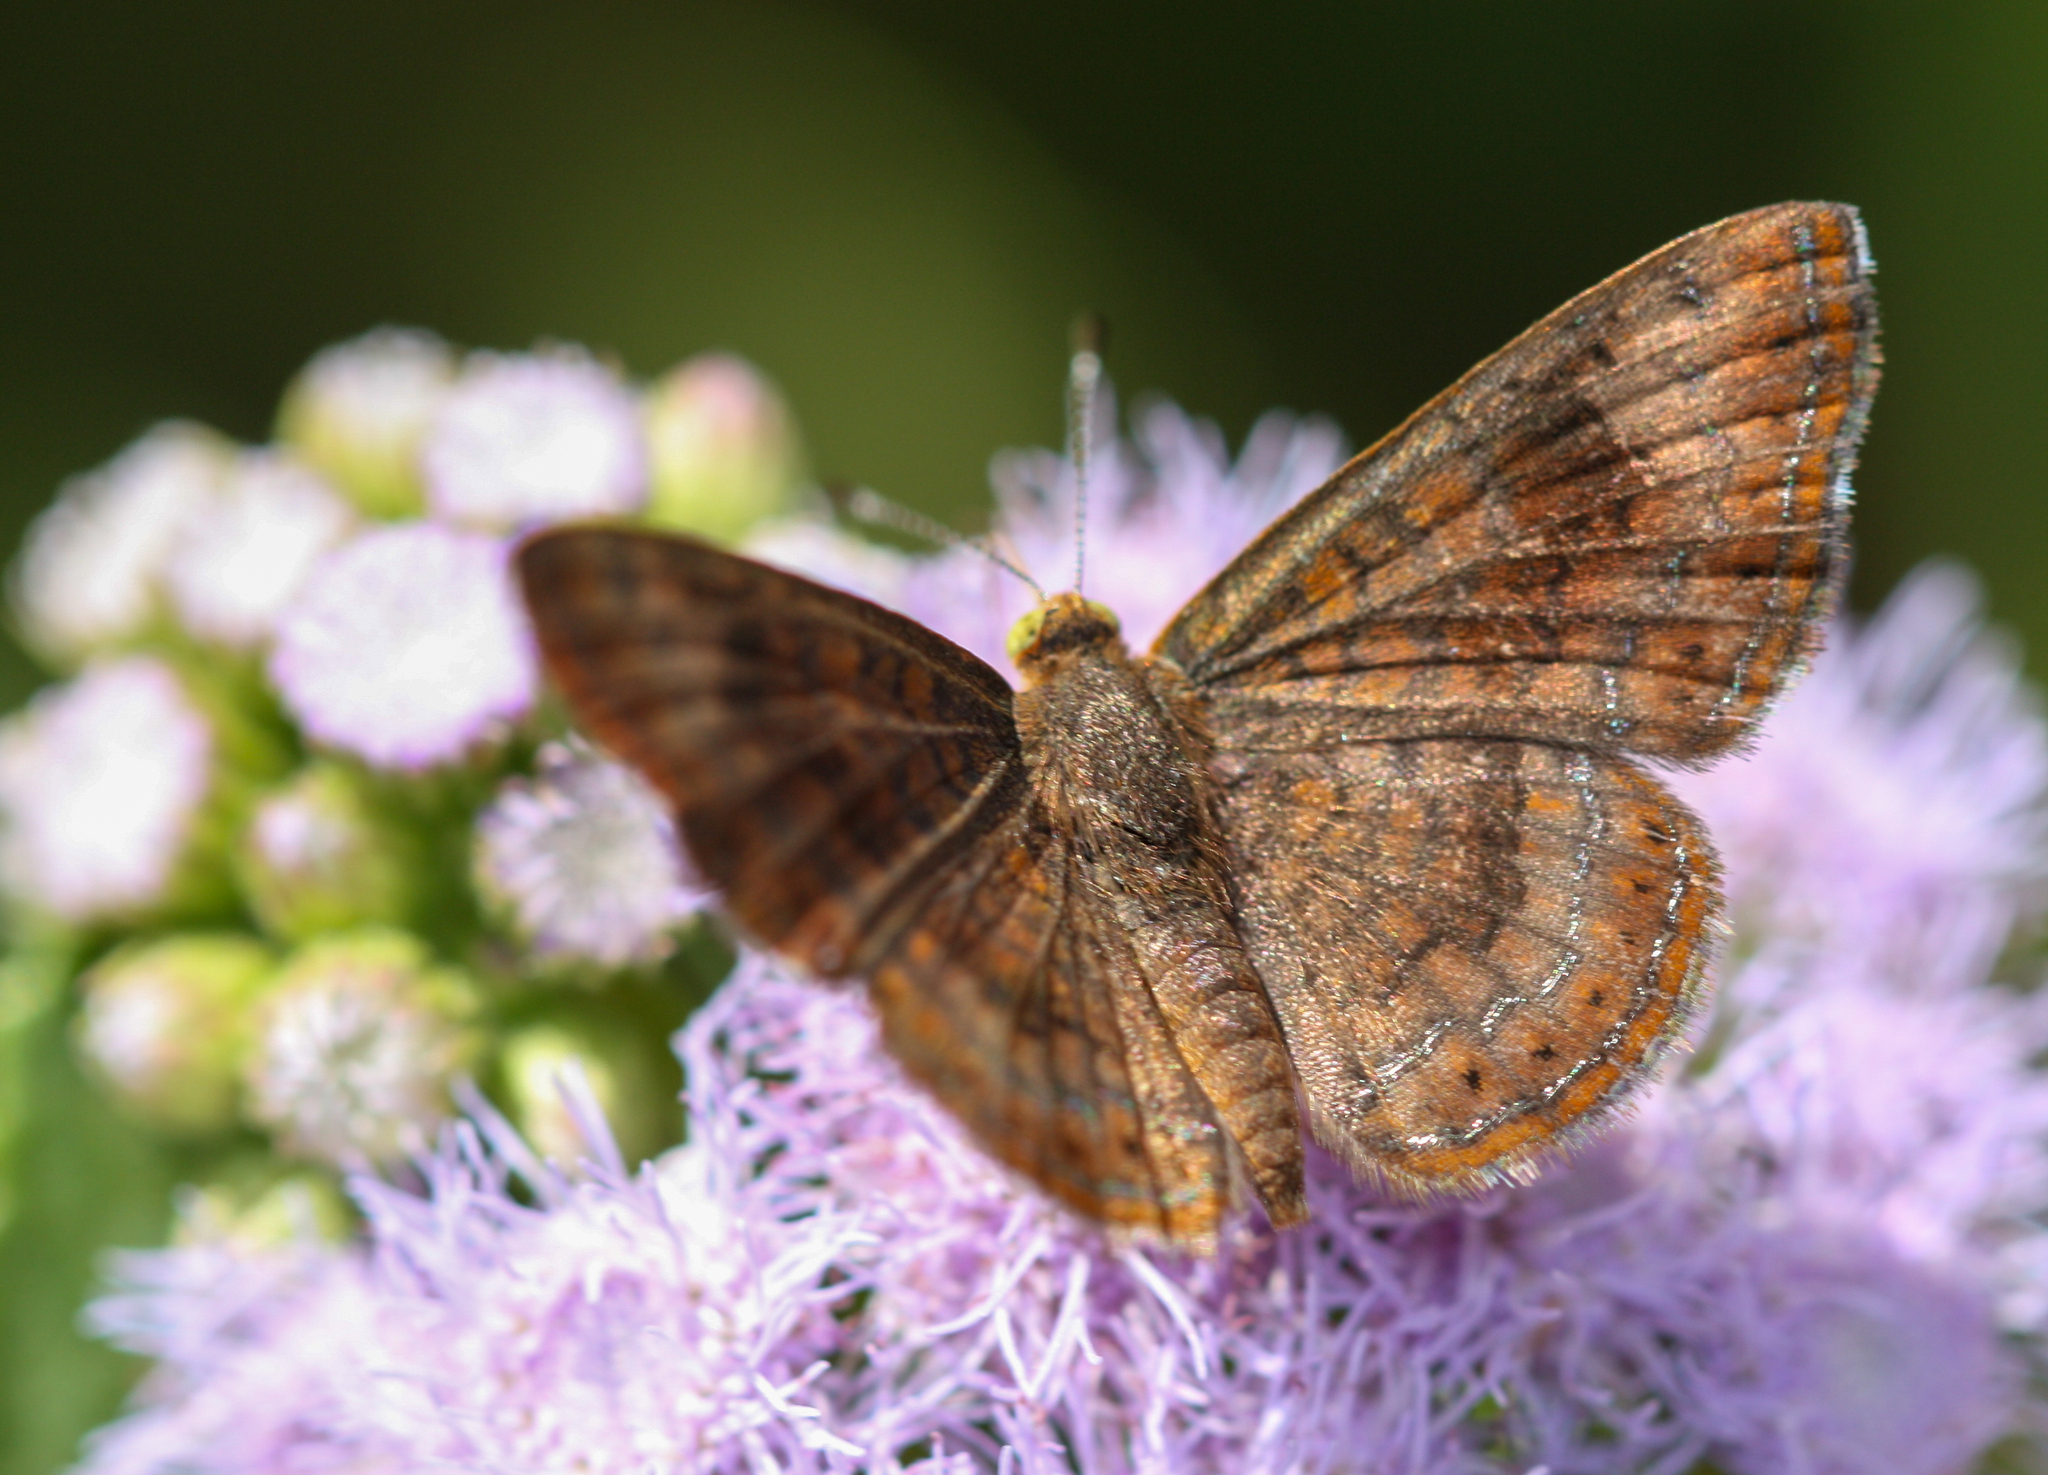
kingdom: Animalia
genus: Calephelis
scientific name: Calephelis nemesis
